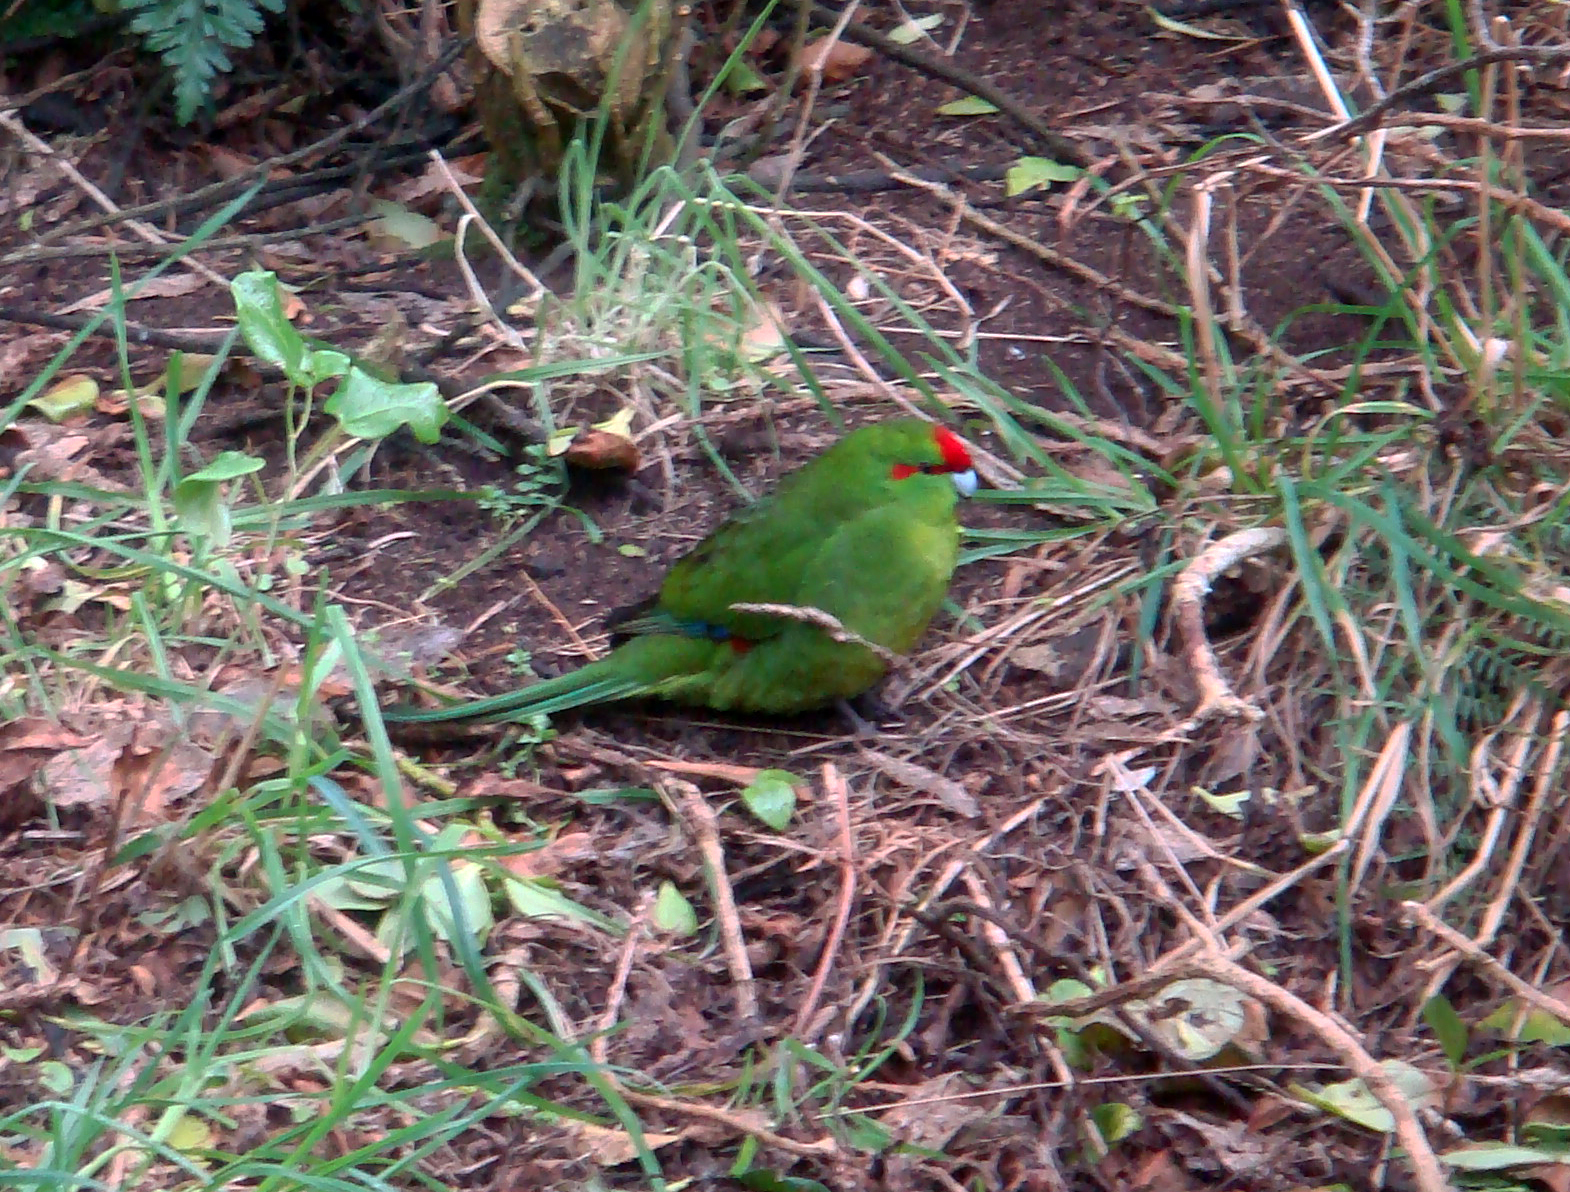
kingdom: Animalia
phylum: Chordata
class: Aves
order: Psittaciformes
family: Psittacidae
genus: Cyanoramphus
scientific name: Cyanoramphus novaezelandiae
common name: Red-fronted parakeet
